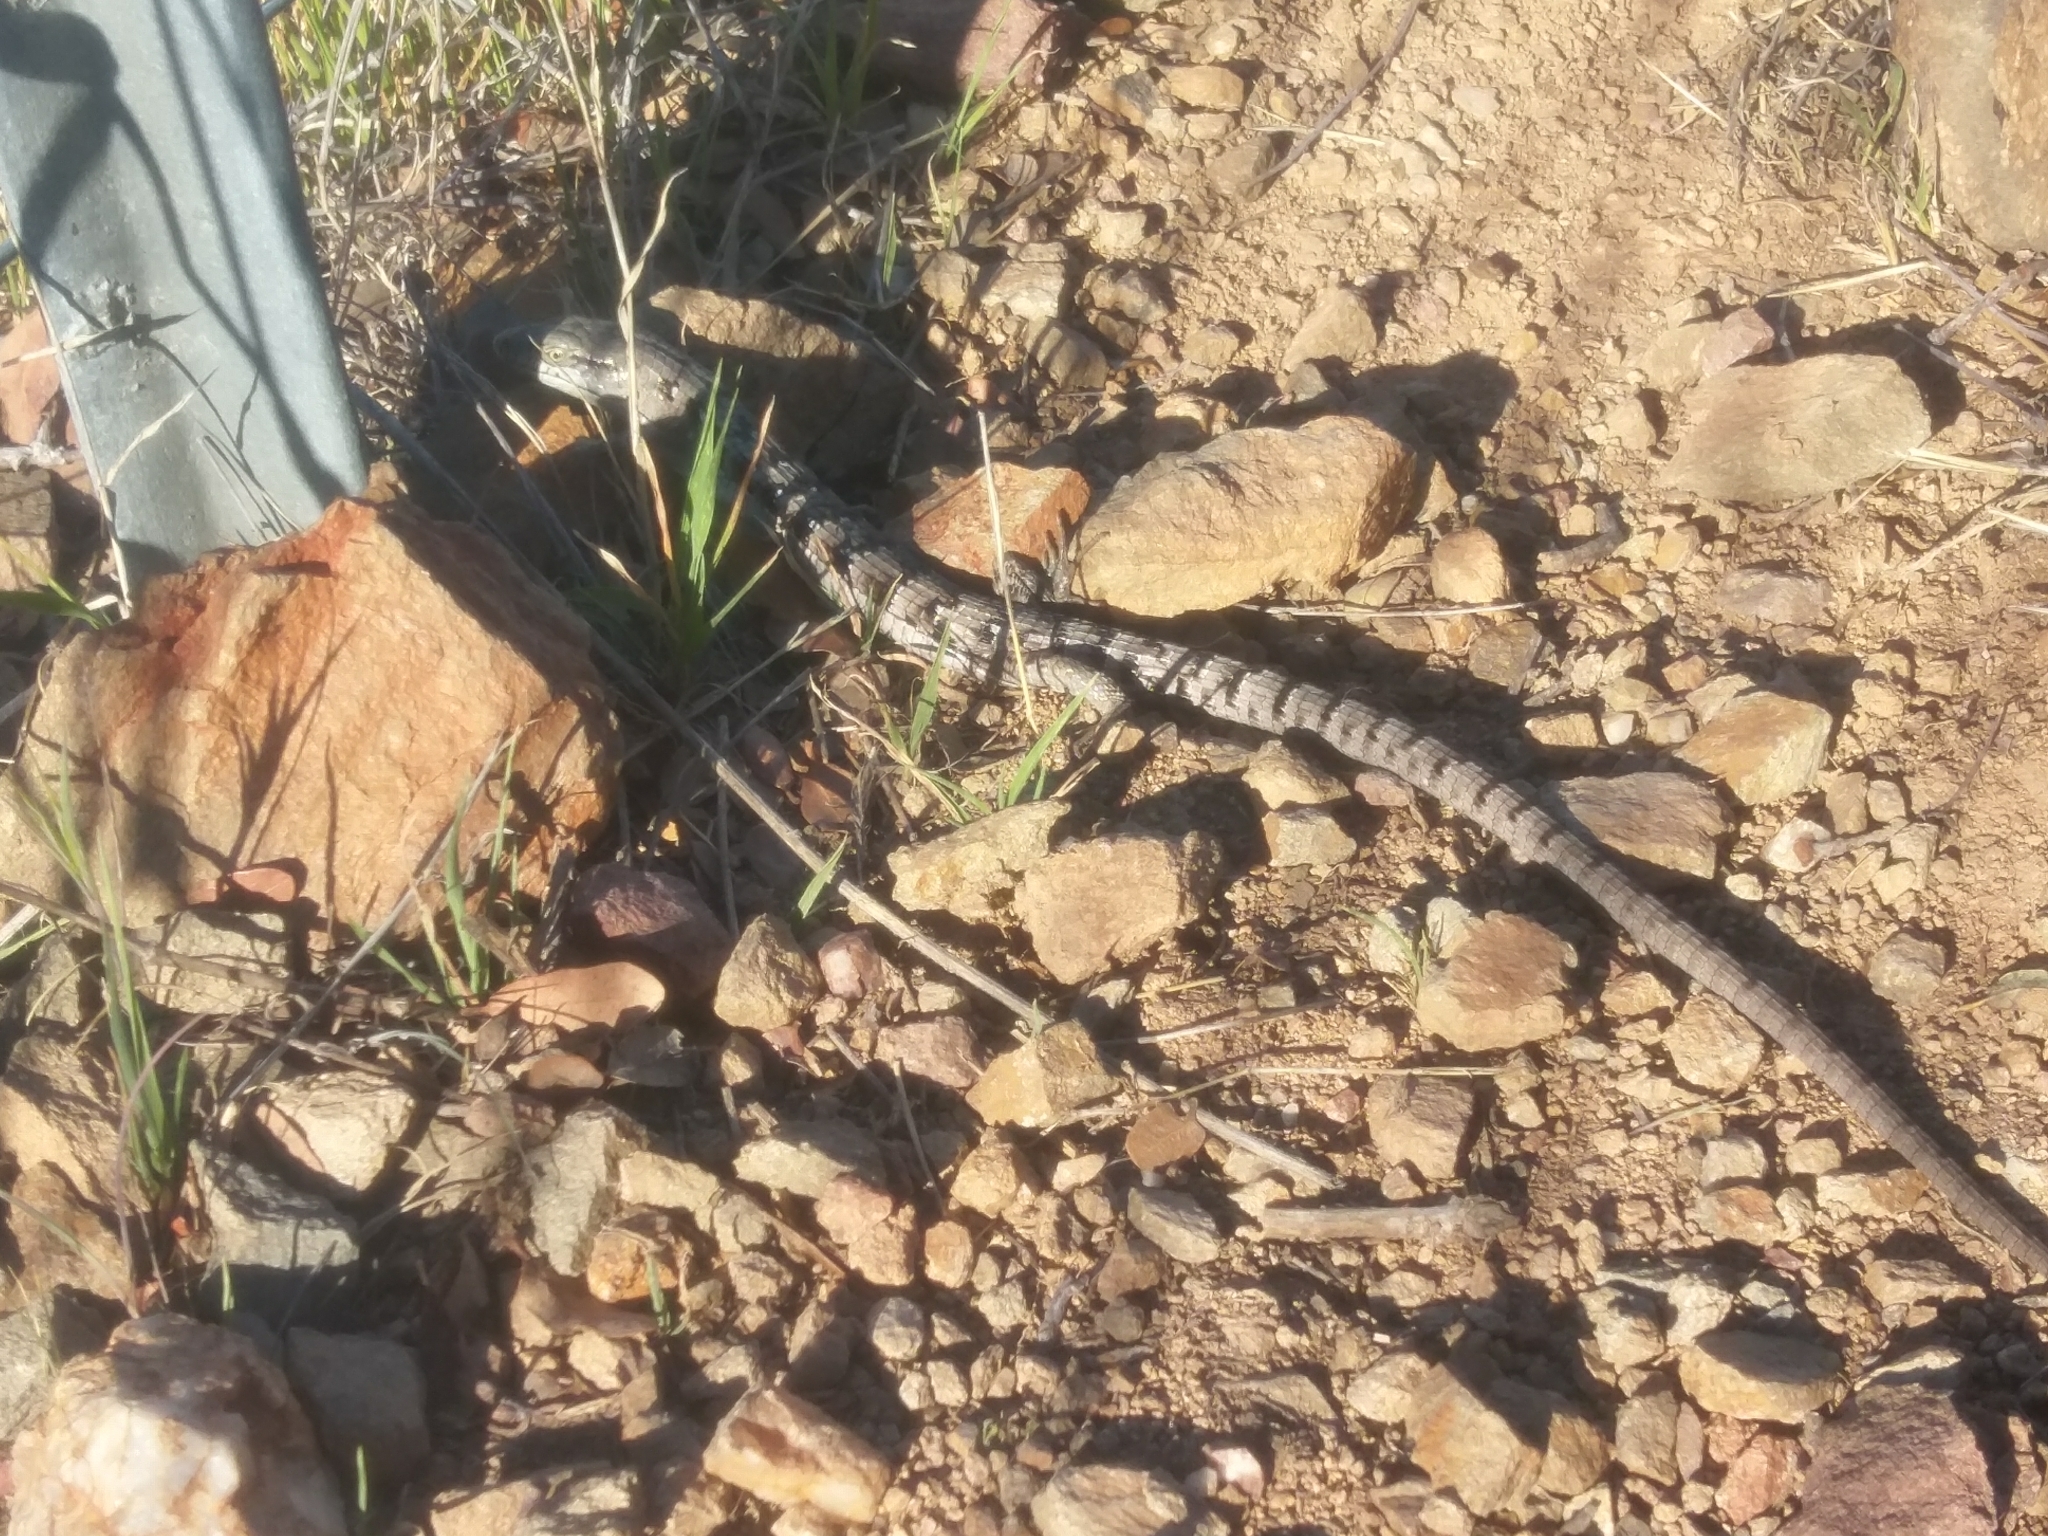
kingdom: Animalia
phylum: Chordata
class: Squamata
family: Anguidae
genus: Elgaria
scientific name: Elgaria multicarinata
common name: Southern alligator lizard
